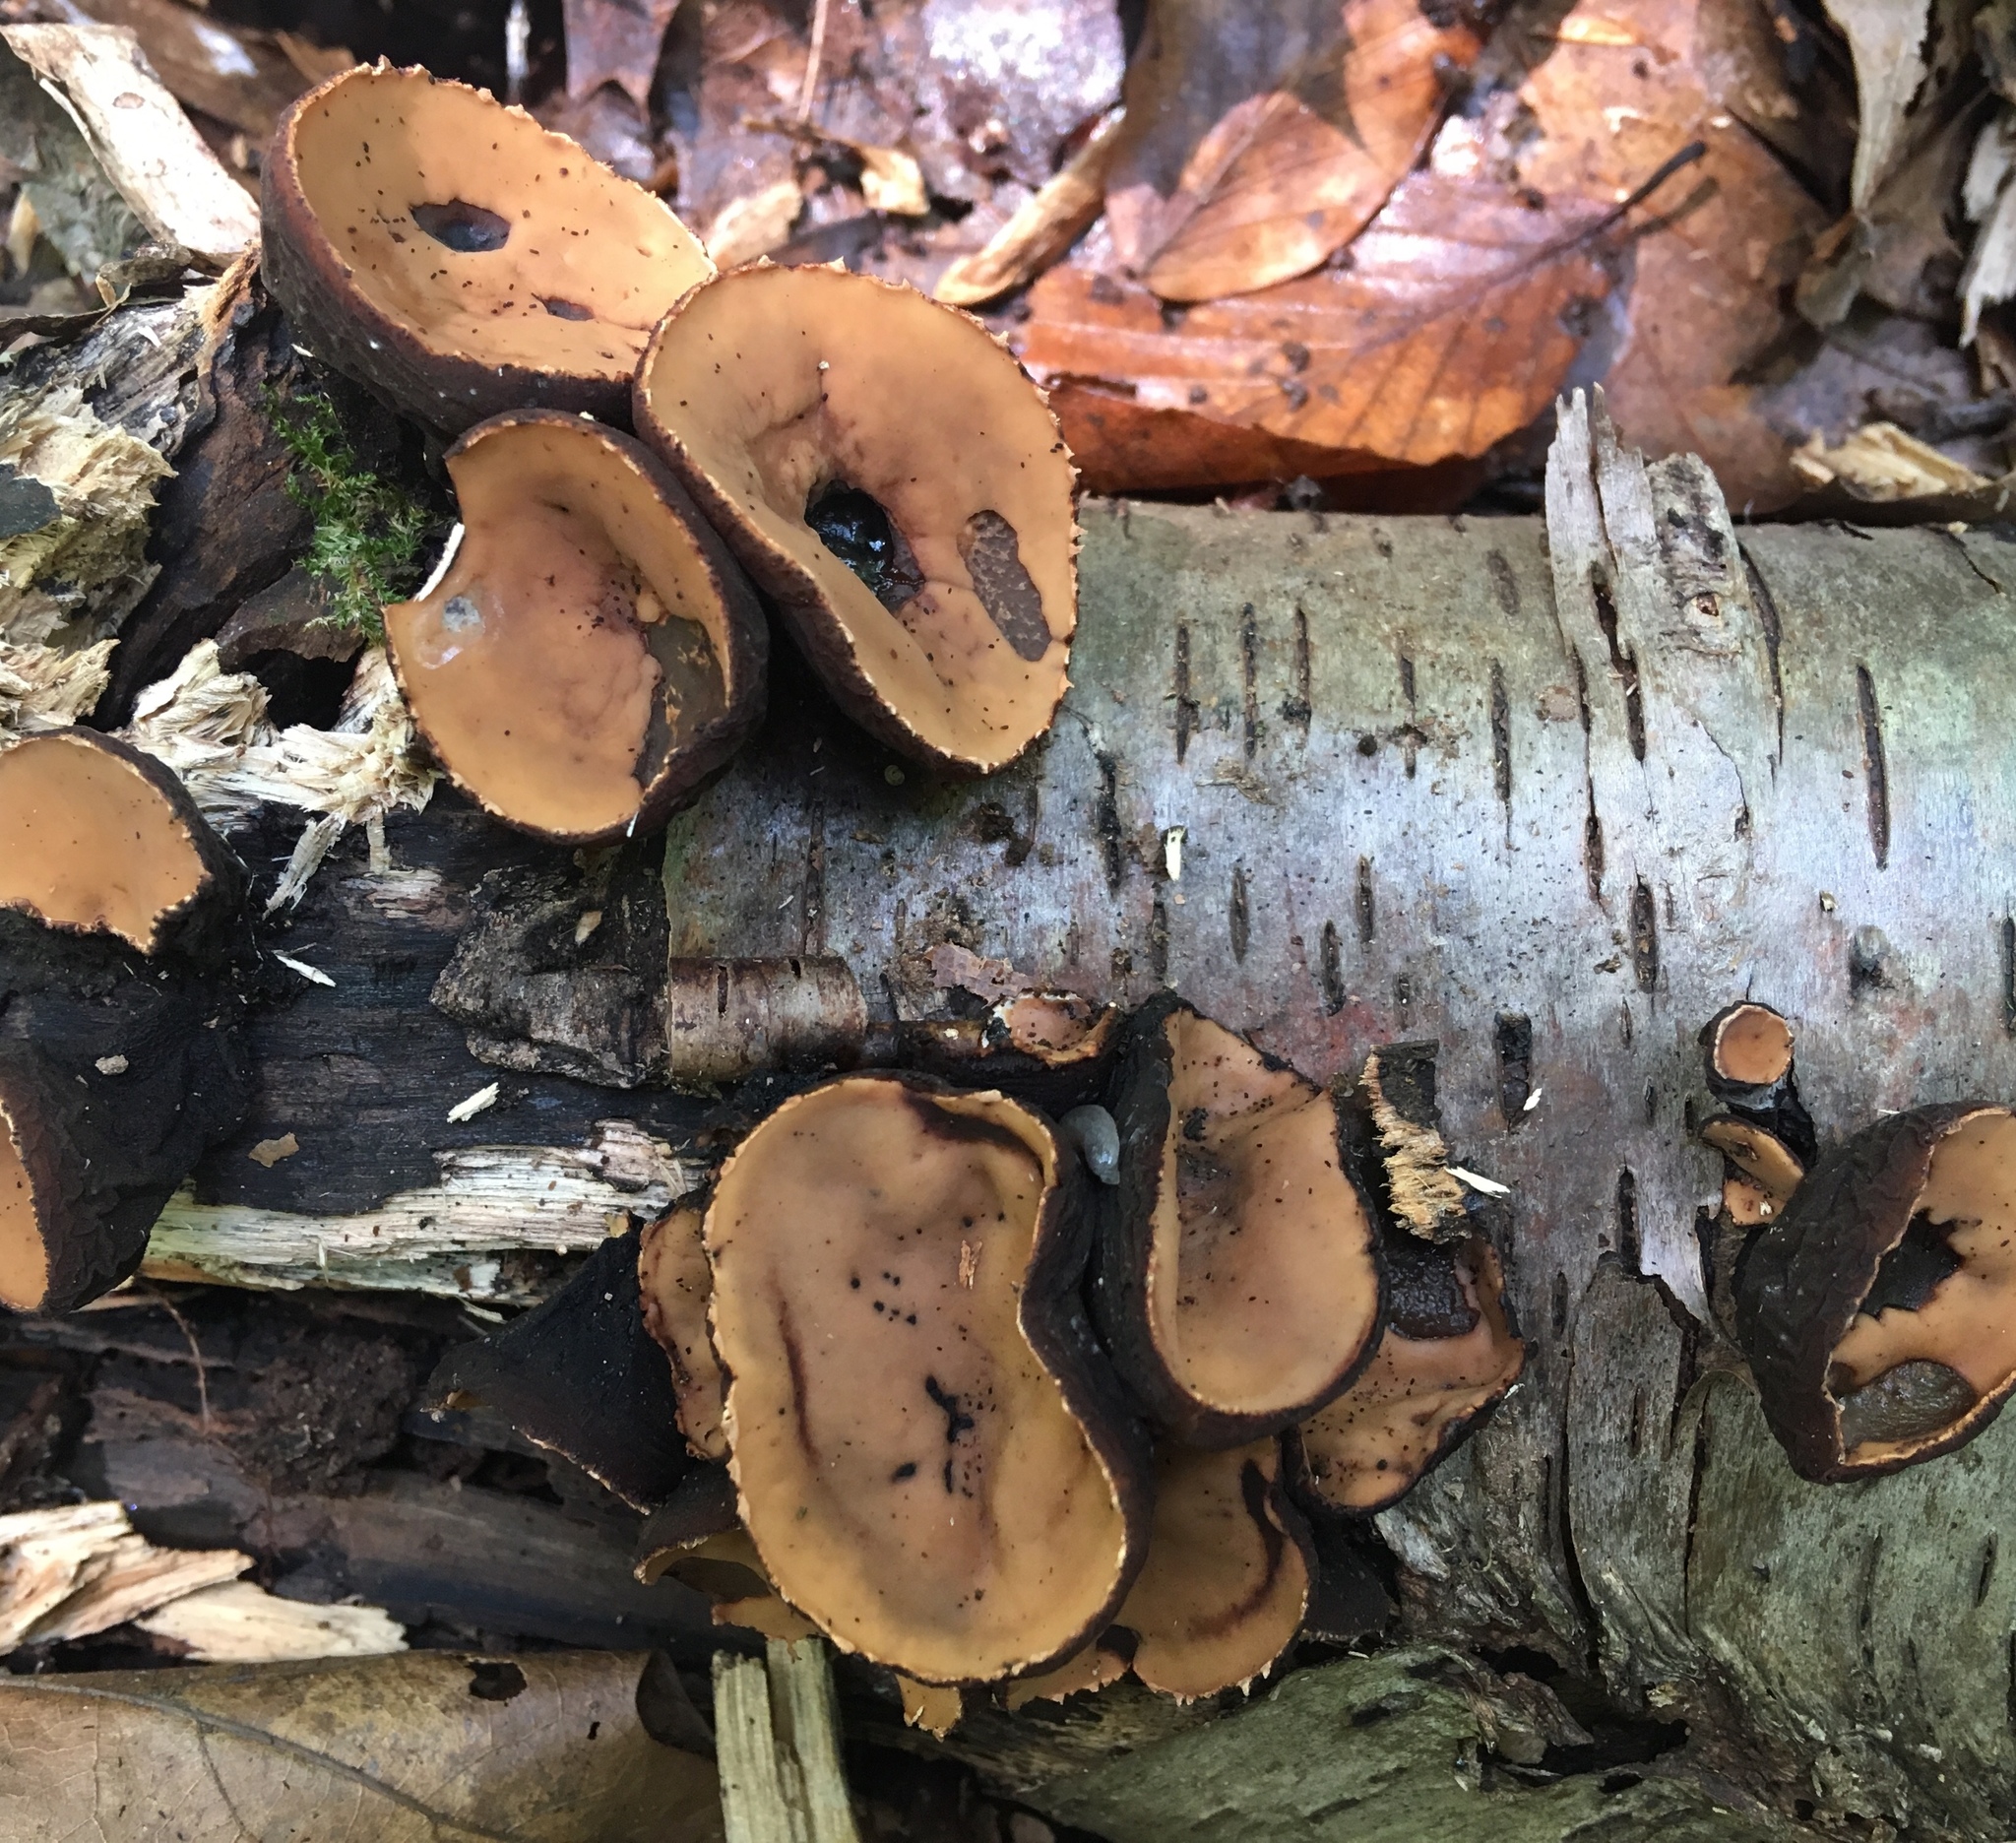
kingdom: Fungi
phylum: Ascomycota
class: Pezizomycetes
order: Pezizales
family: Sarcosomataceae
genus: Galiella
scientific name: Galiella rufa
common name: Hairy rubber cup
